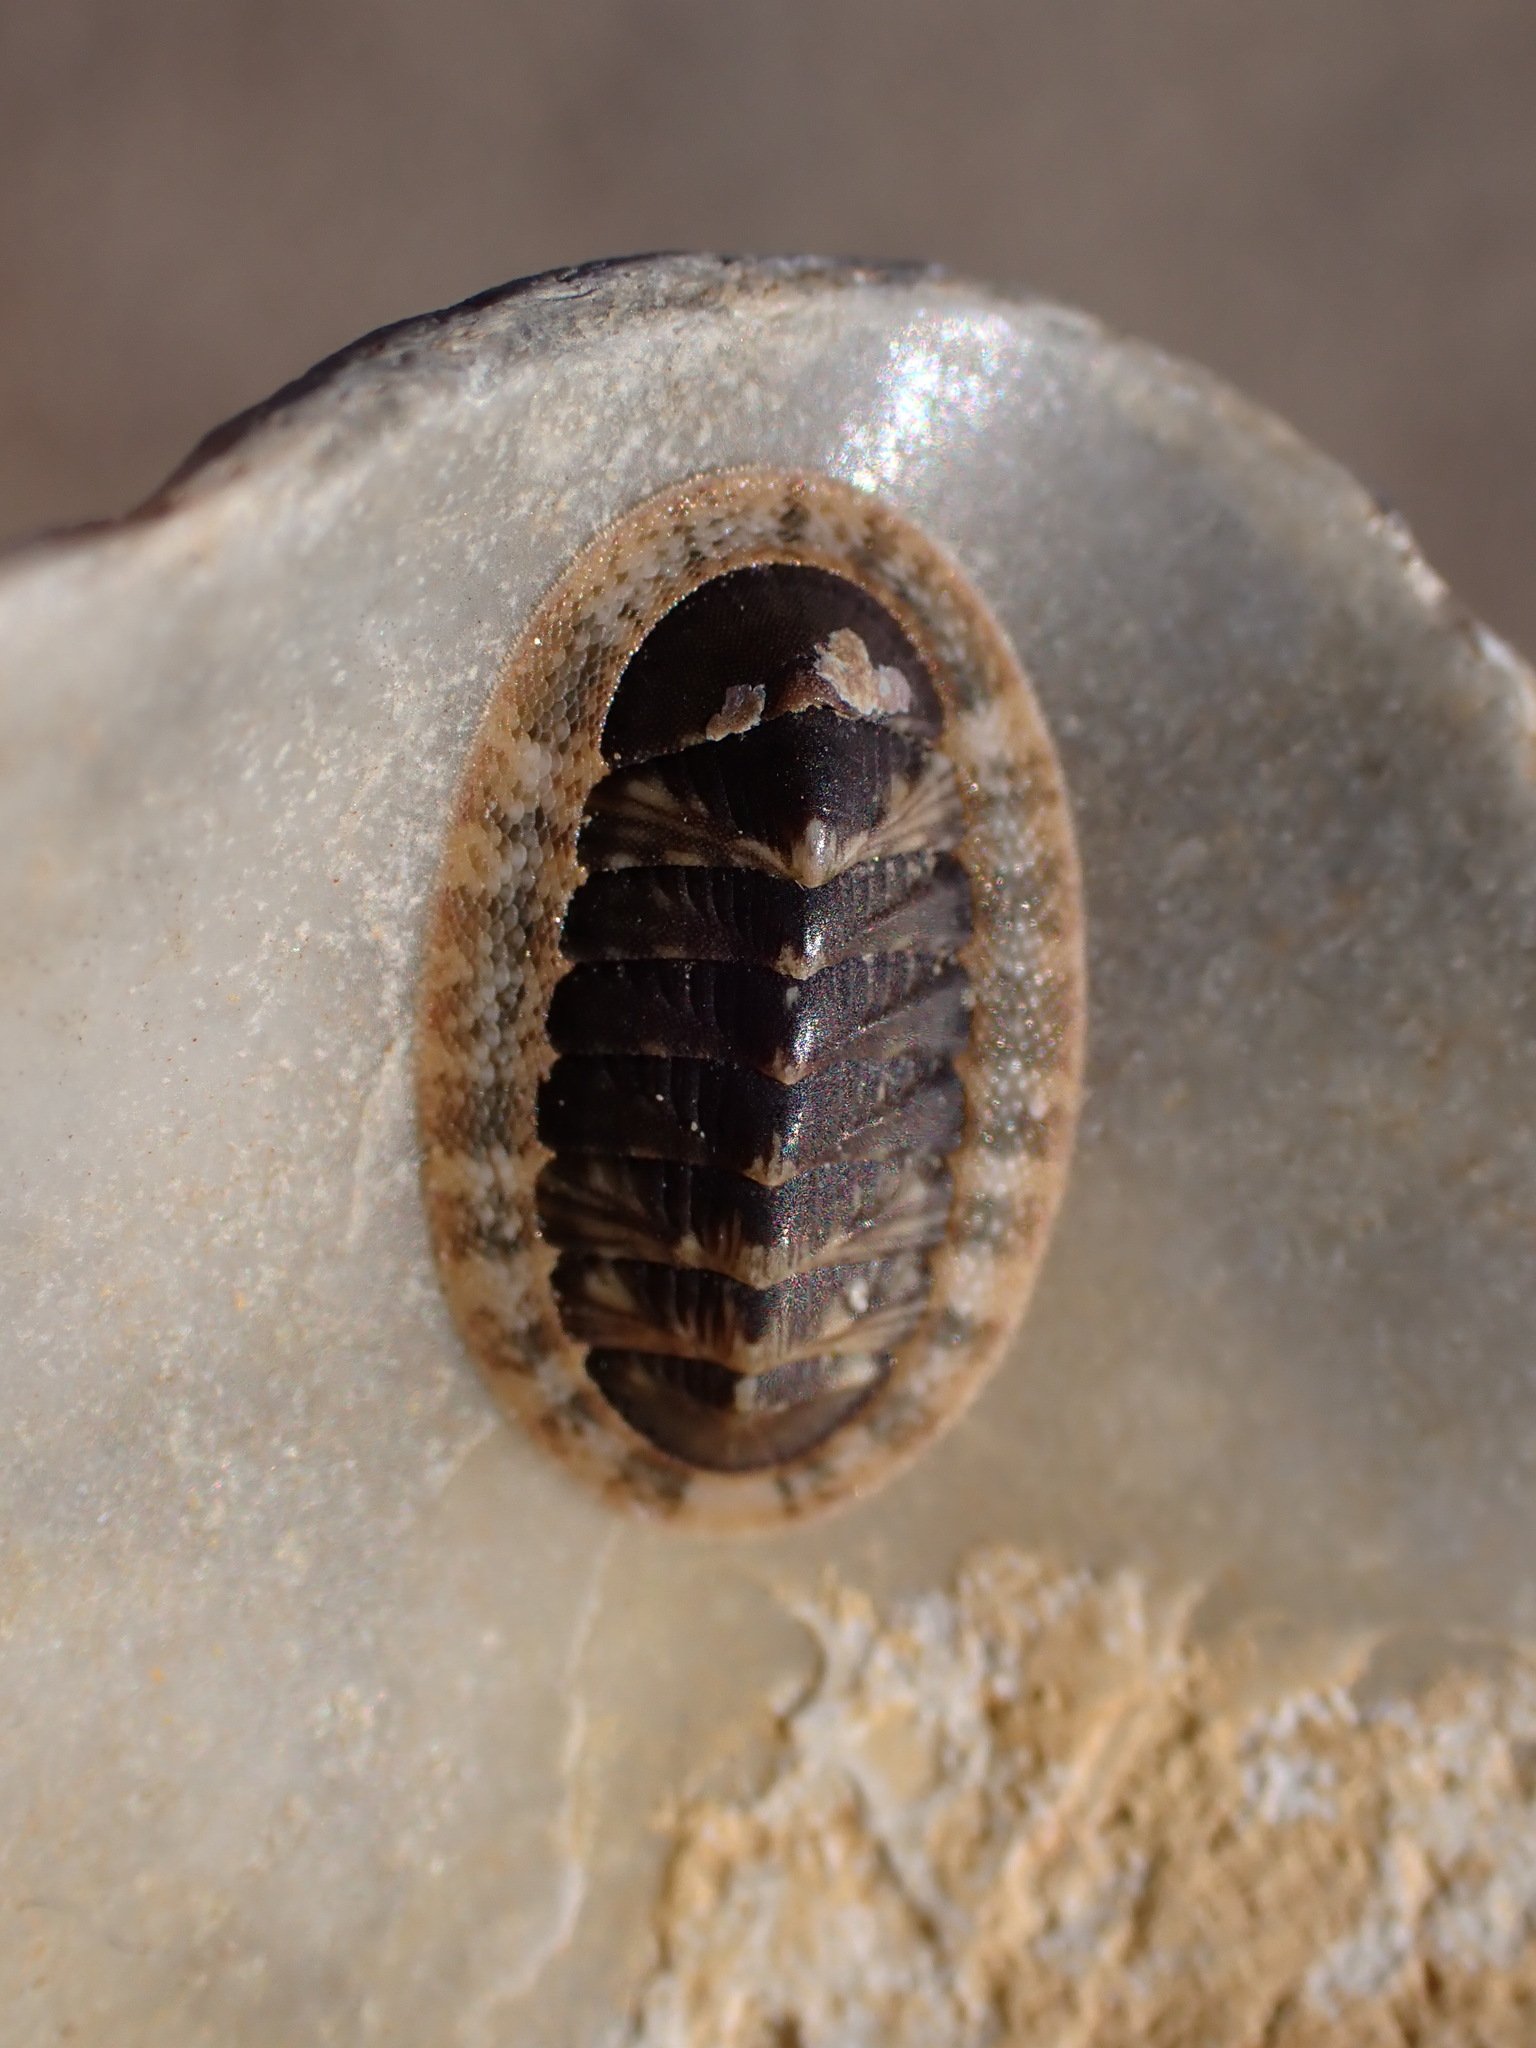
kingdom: Animalia
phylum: Mollusca
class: Polyplacophora
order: Chitonida
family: Chitonidae
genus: Rhyssoplax
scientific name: Rhyssoplax olivacea
